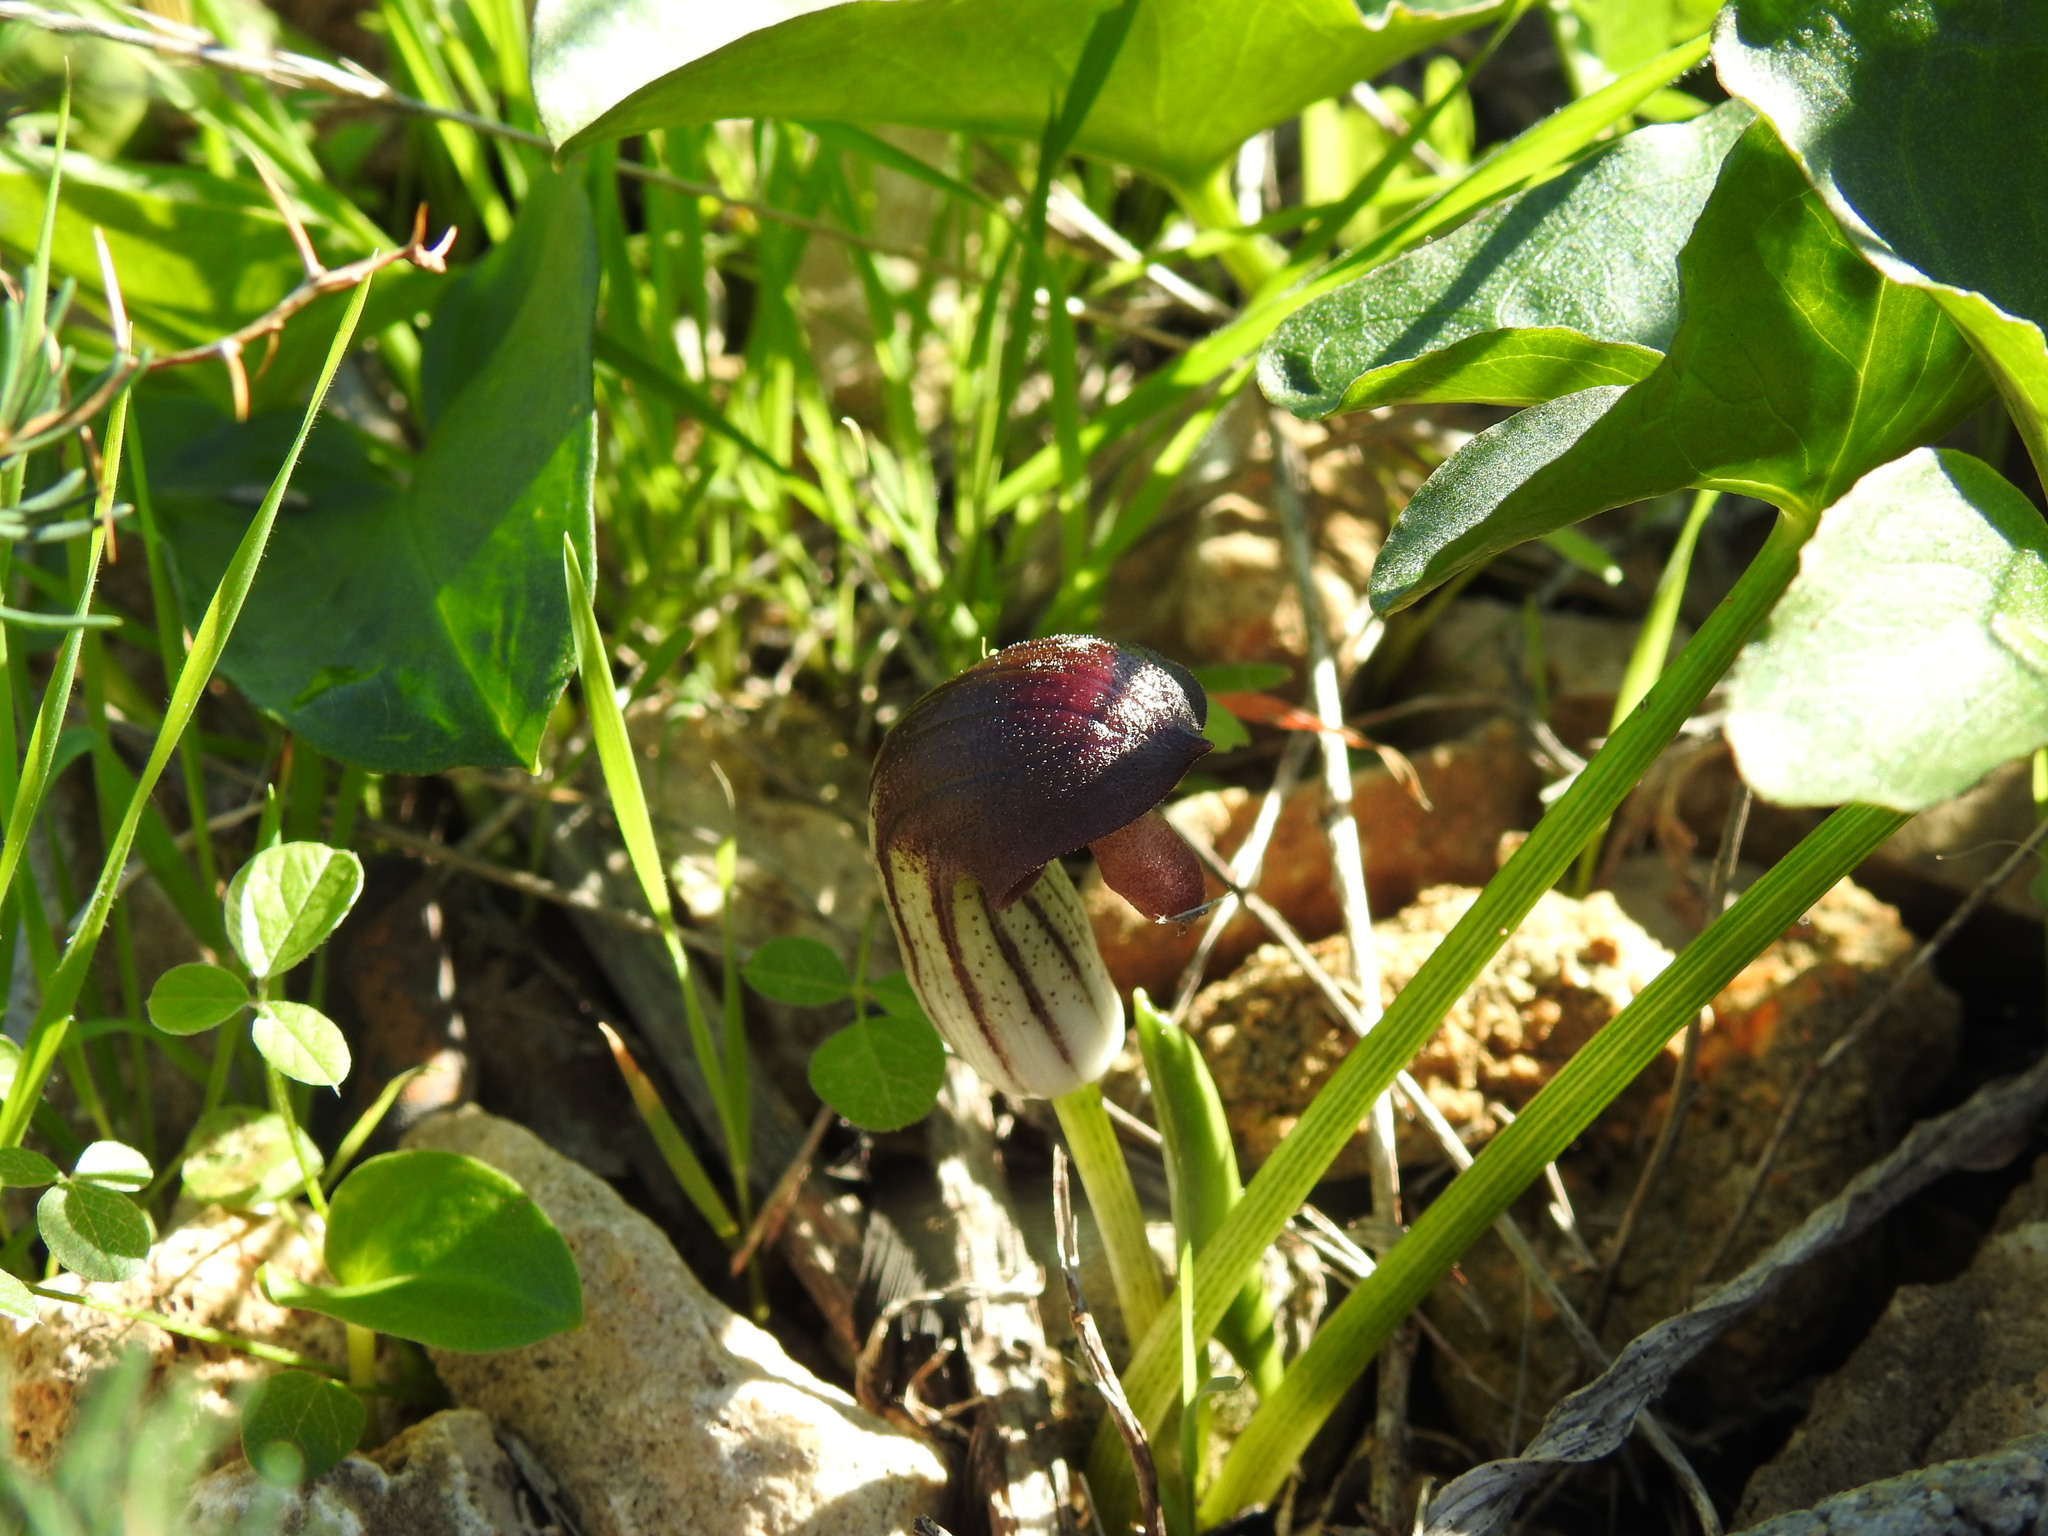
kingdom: Plantae
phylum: Tracheophyta
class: Liliopsida
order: Alismatales
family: Araceae
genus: Arisarum
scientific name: Arisarum simorrhinum
